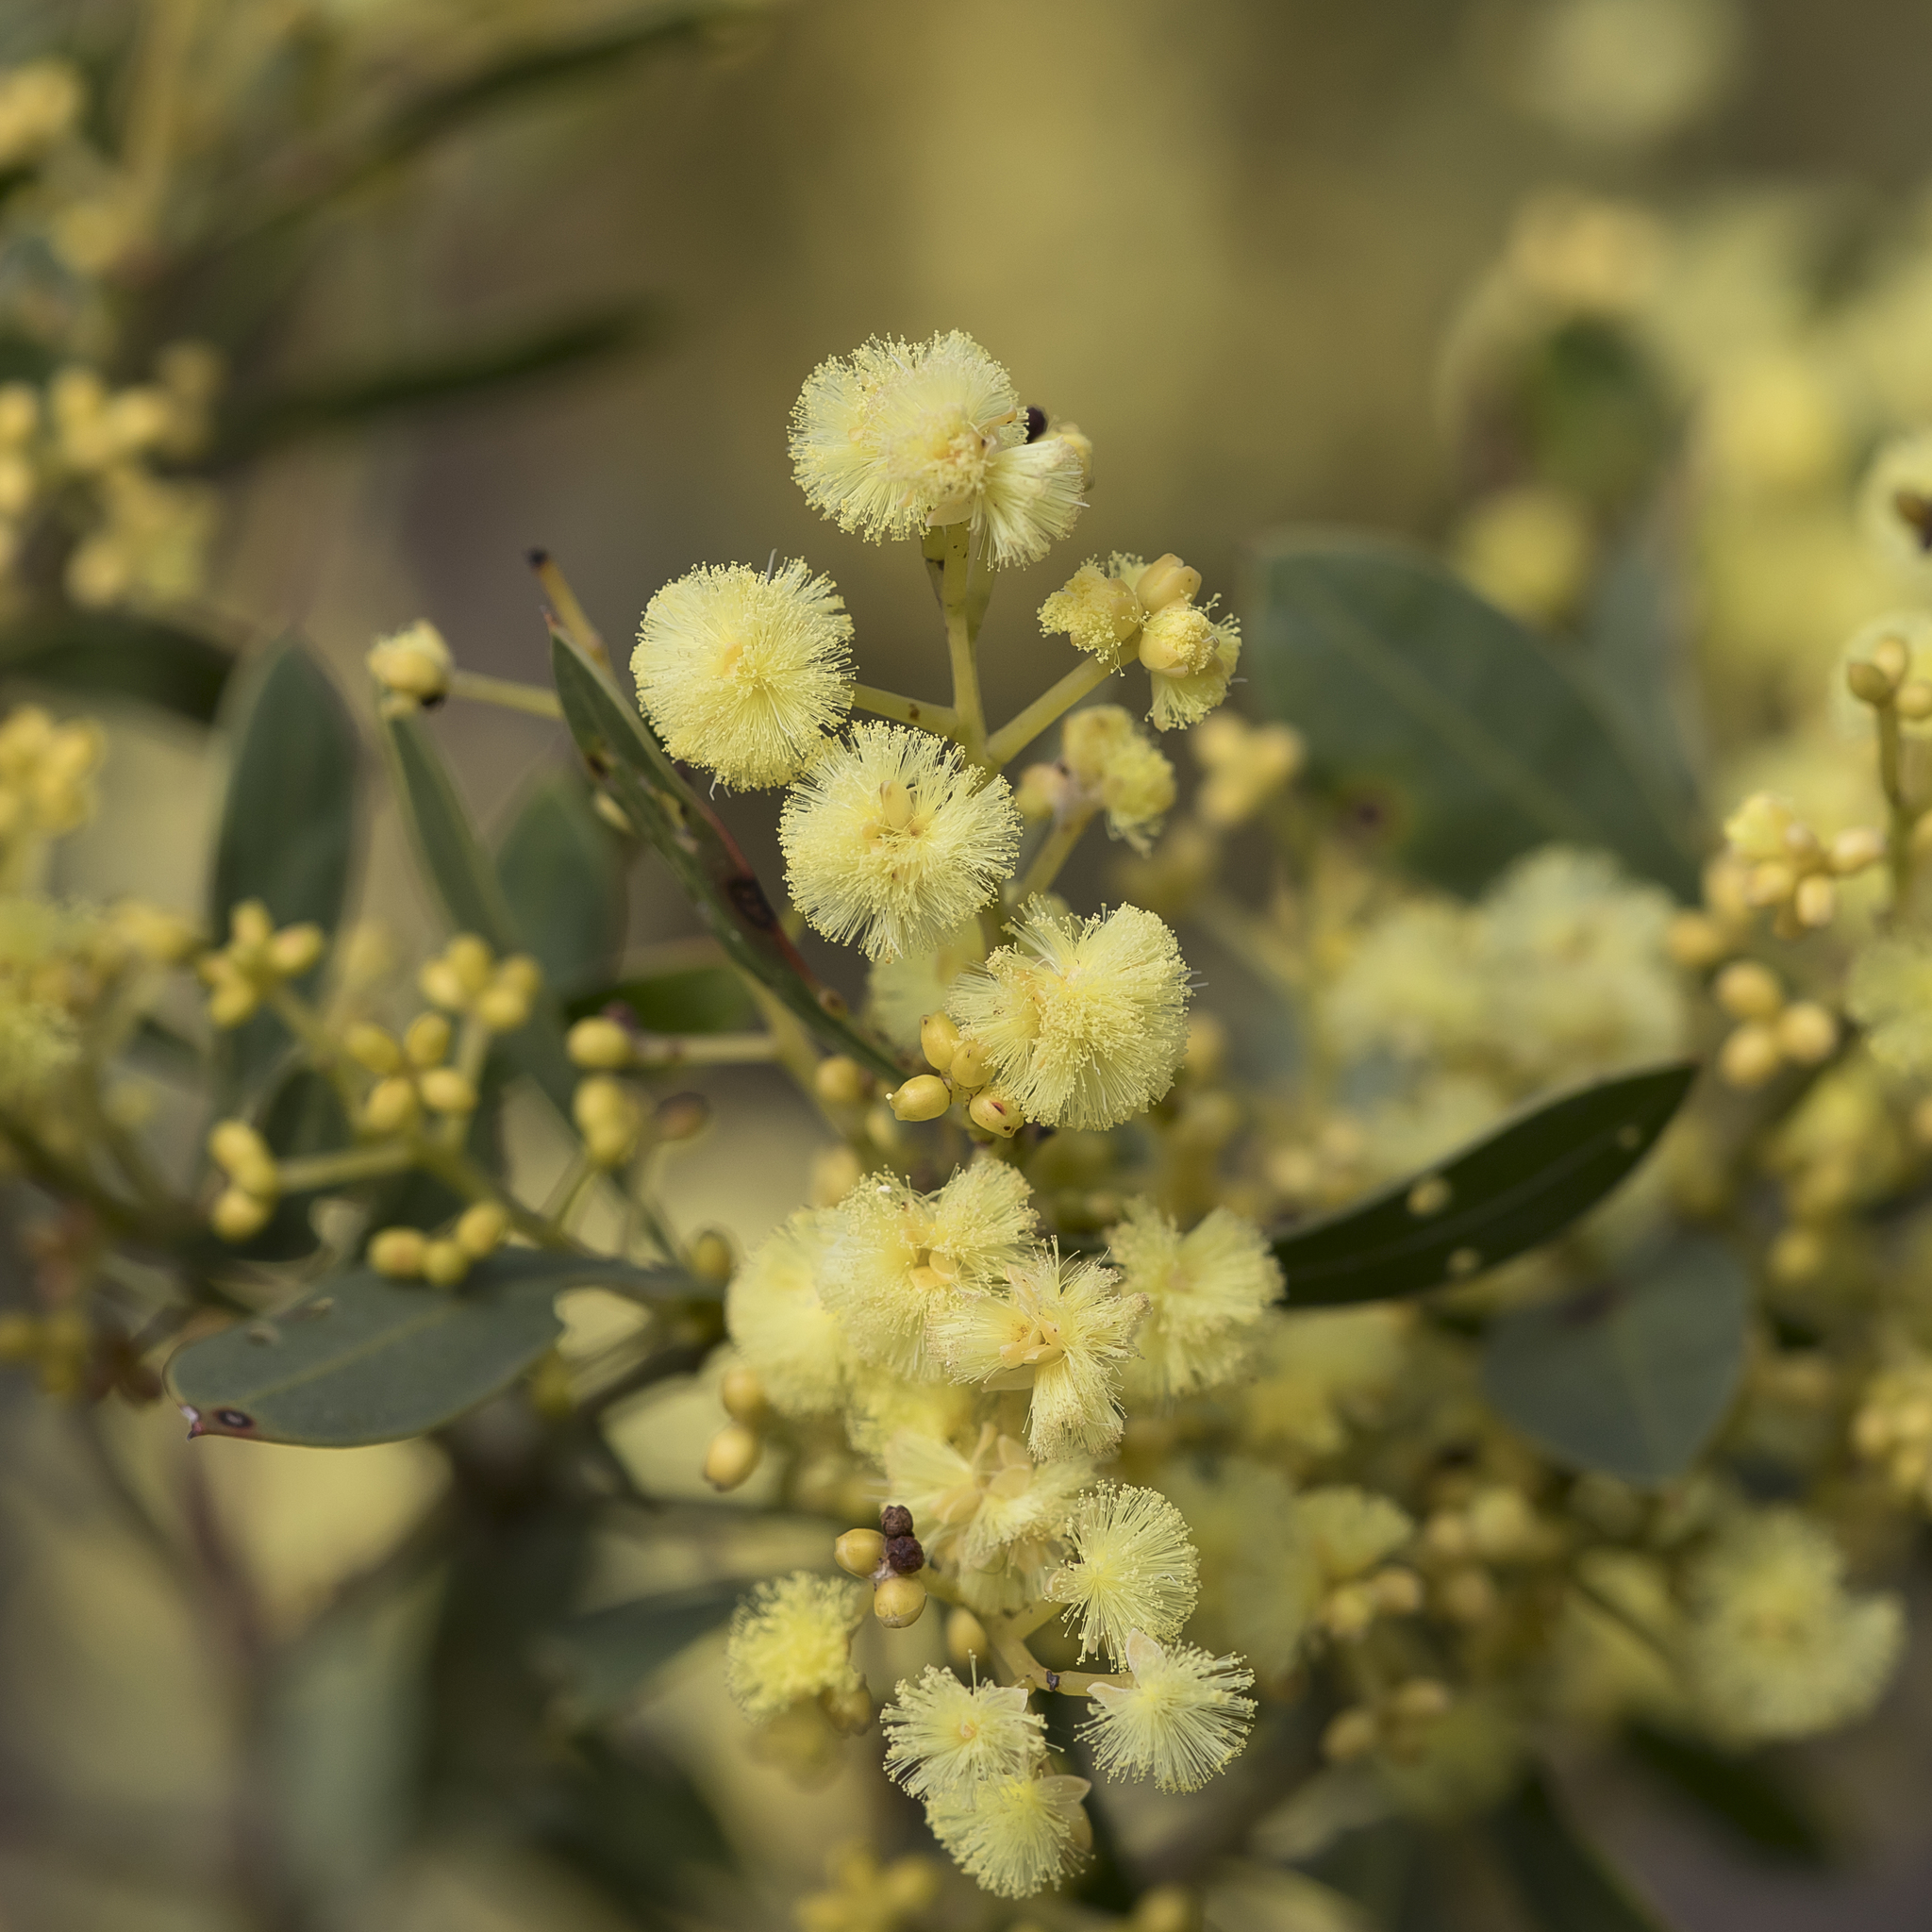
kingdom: Plantae
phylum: Tracheophyta
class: Magnoliopsida
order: Fabales
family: Fabaceae
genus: Acacia
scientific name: Acacia myrtifolia
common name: Myrtle wattle
